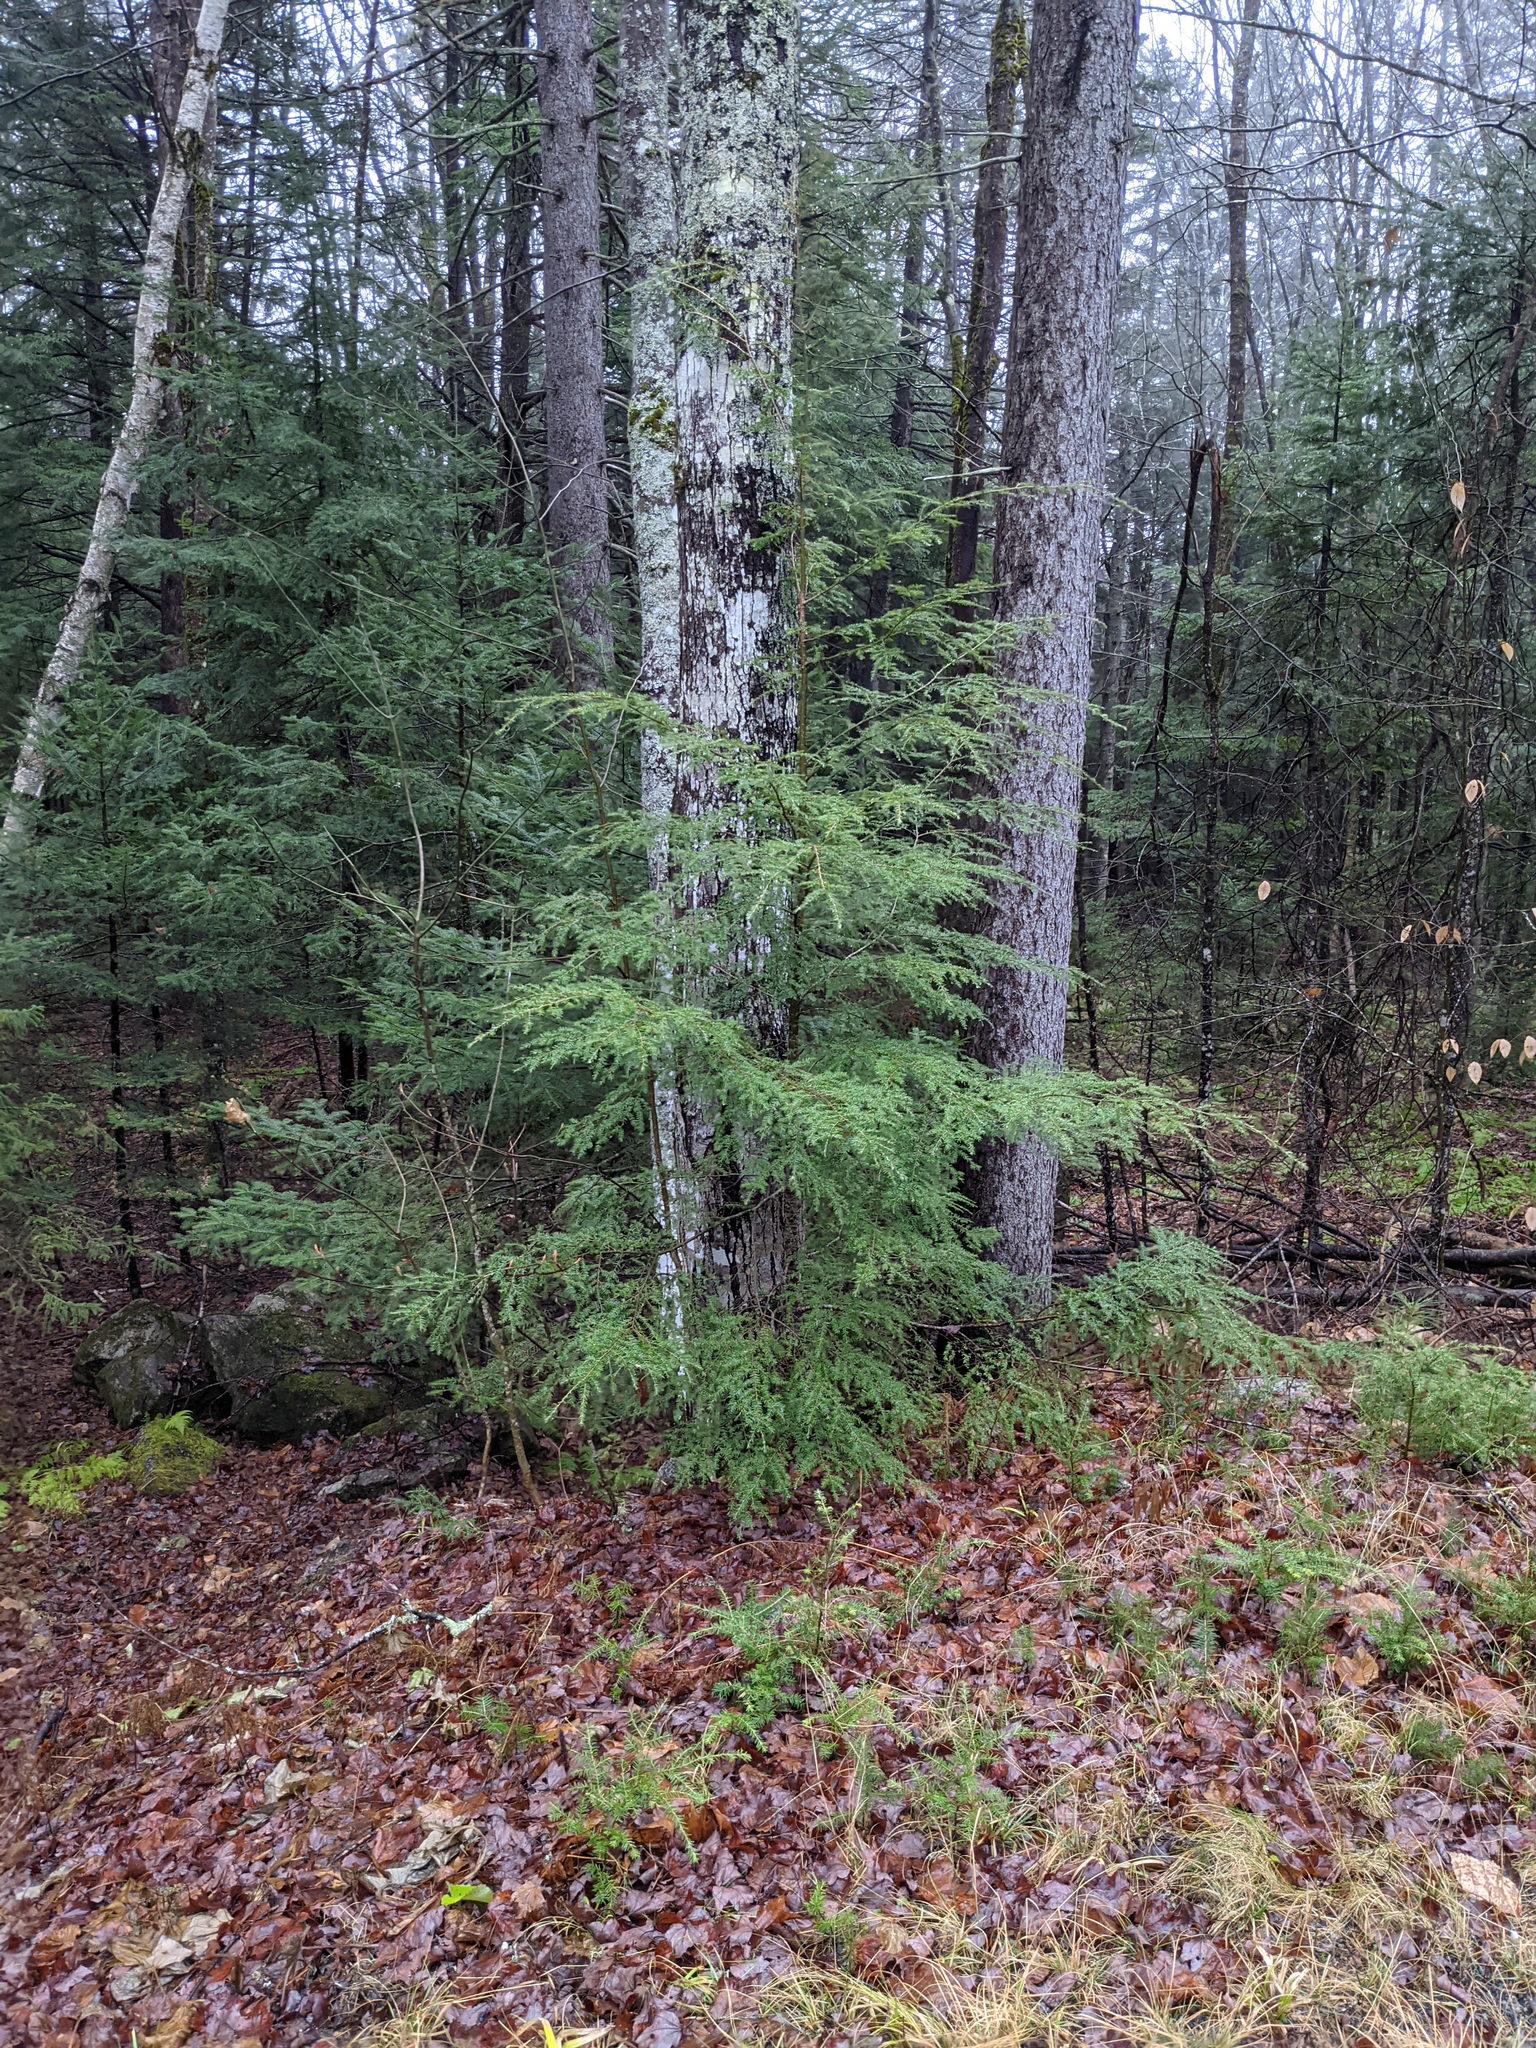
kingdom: Plantae
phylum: Tracheophyta
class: Pinopsida
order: Pinales
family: Pinaceae
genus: Tsuga
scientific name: Tsuga canadensis
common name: Eastern hemlock
